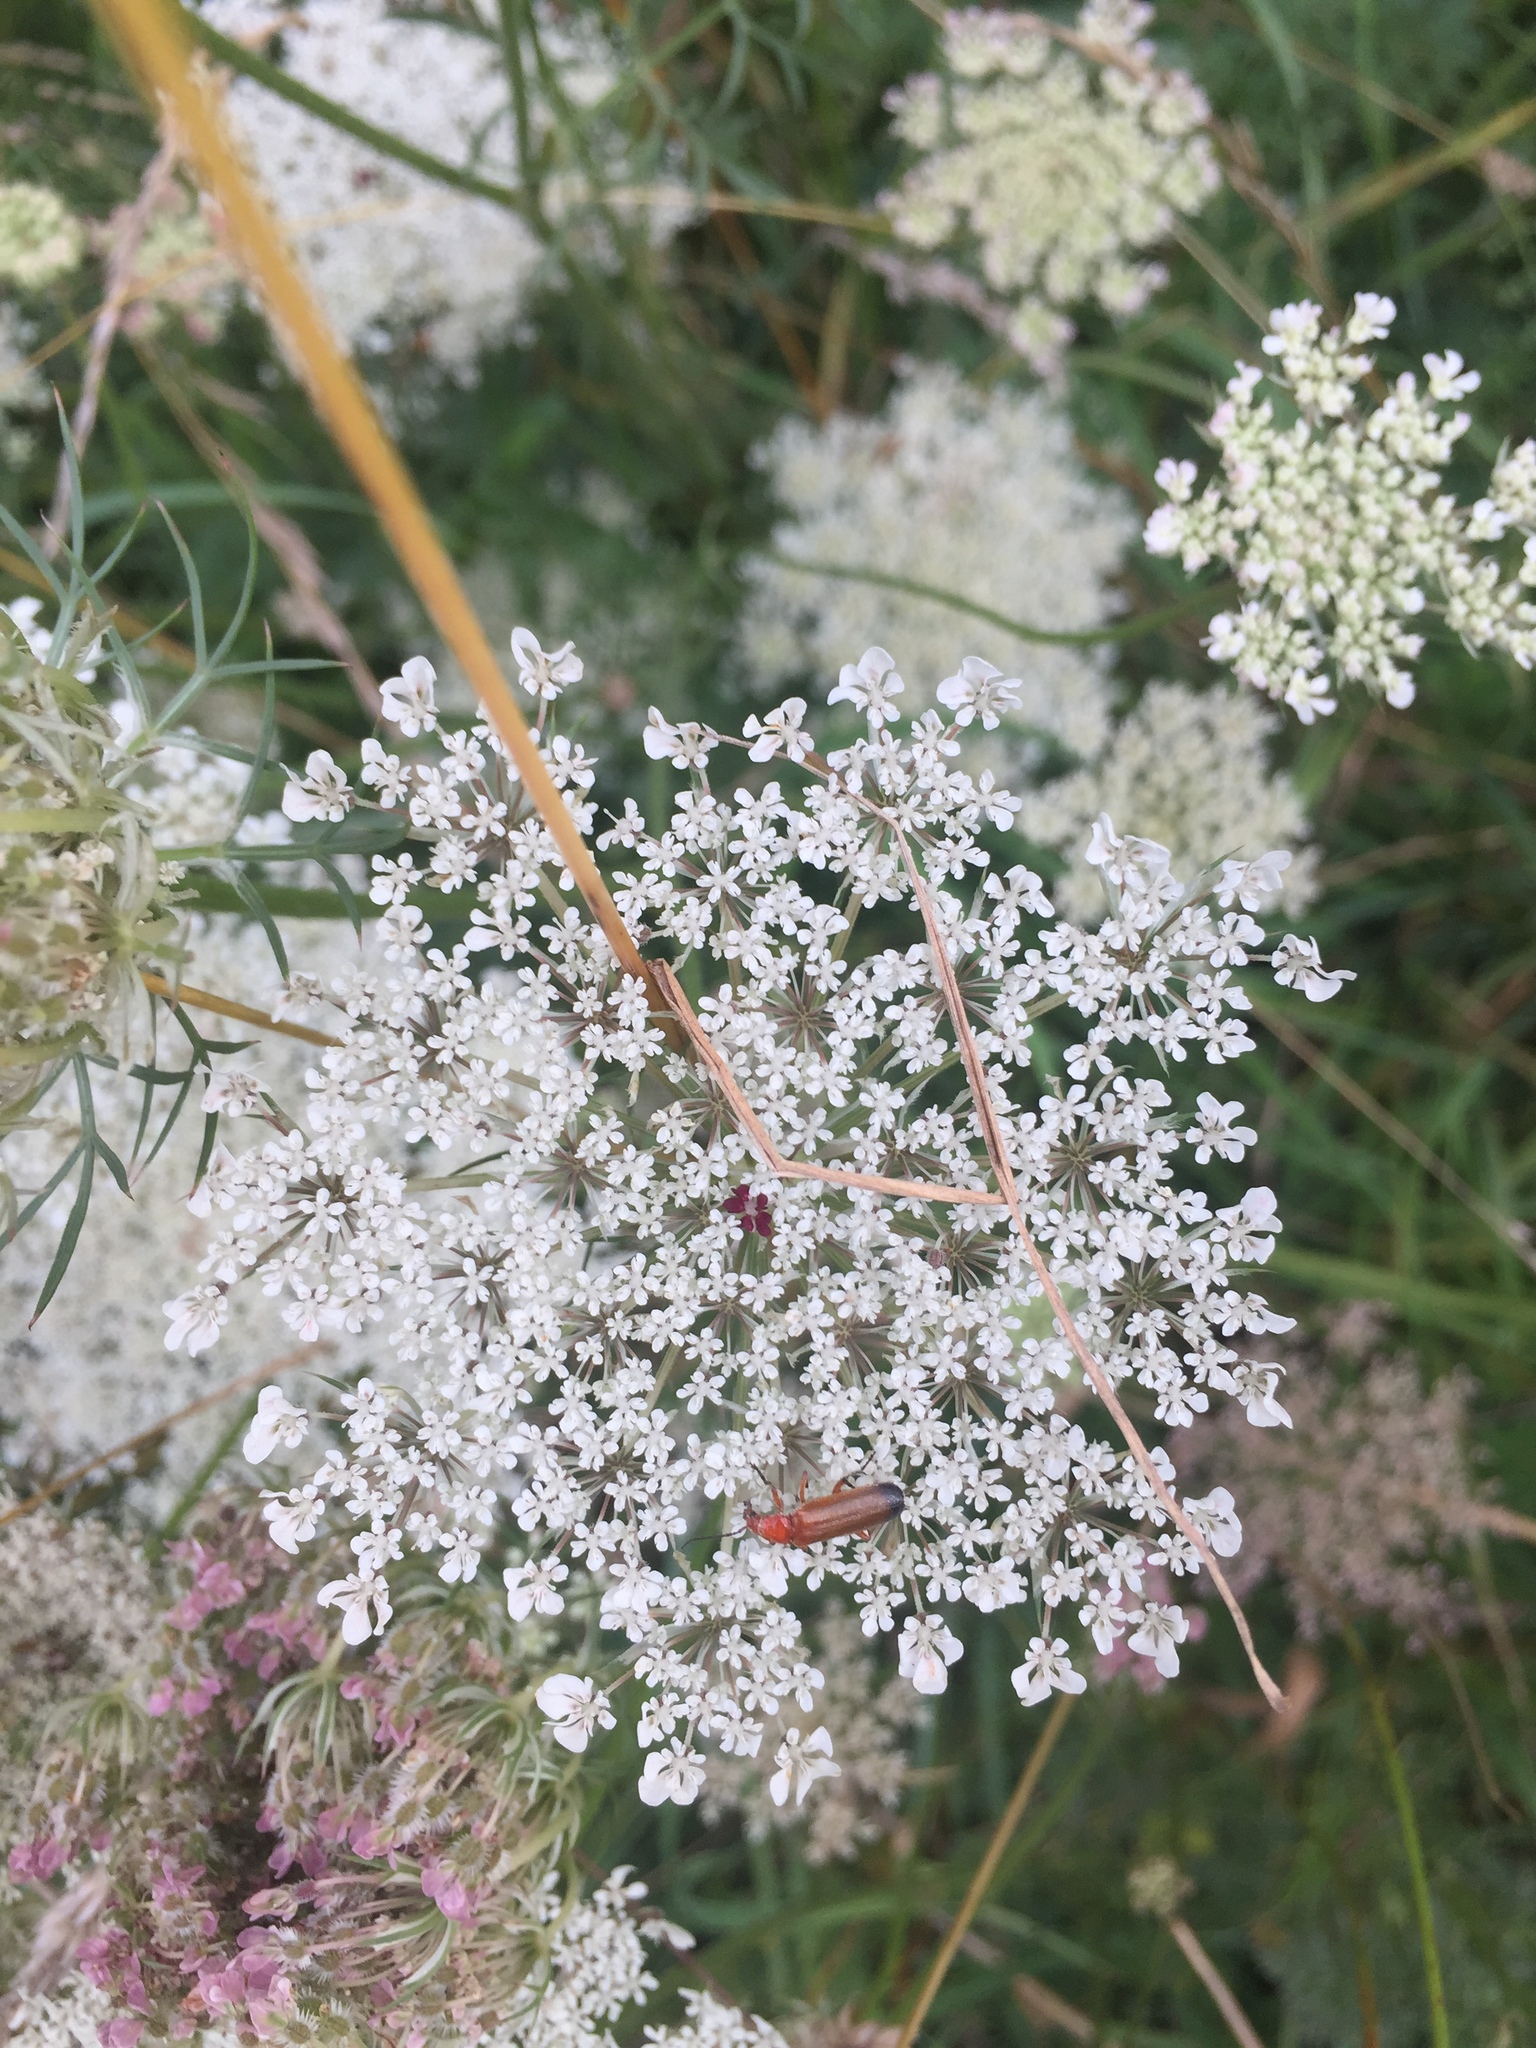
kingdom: Animalia
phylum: Arthropoda
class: Insecta
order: Coleoptera
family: Cantharidae
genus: Rhagonycha
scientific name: Rhagonycha fulva
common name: Common red soldier beetle
